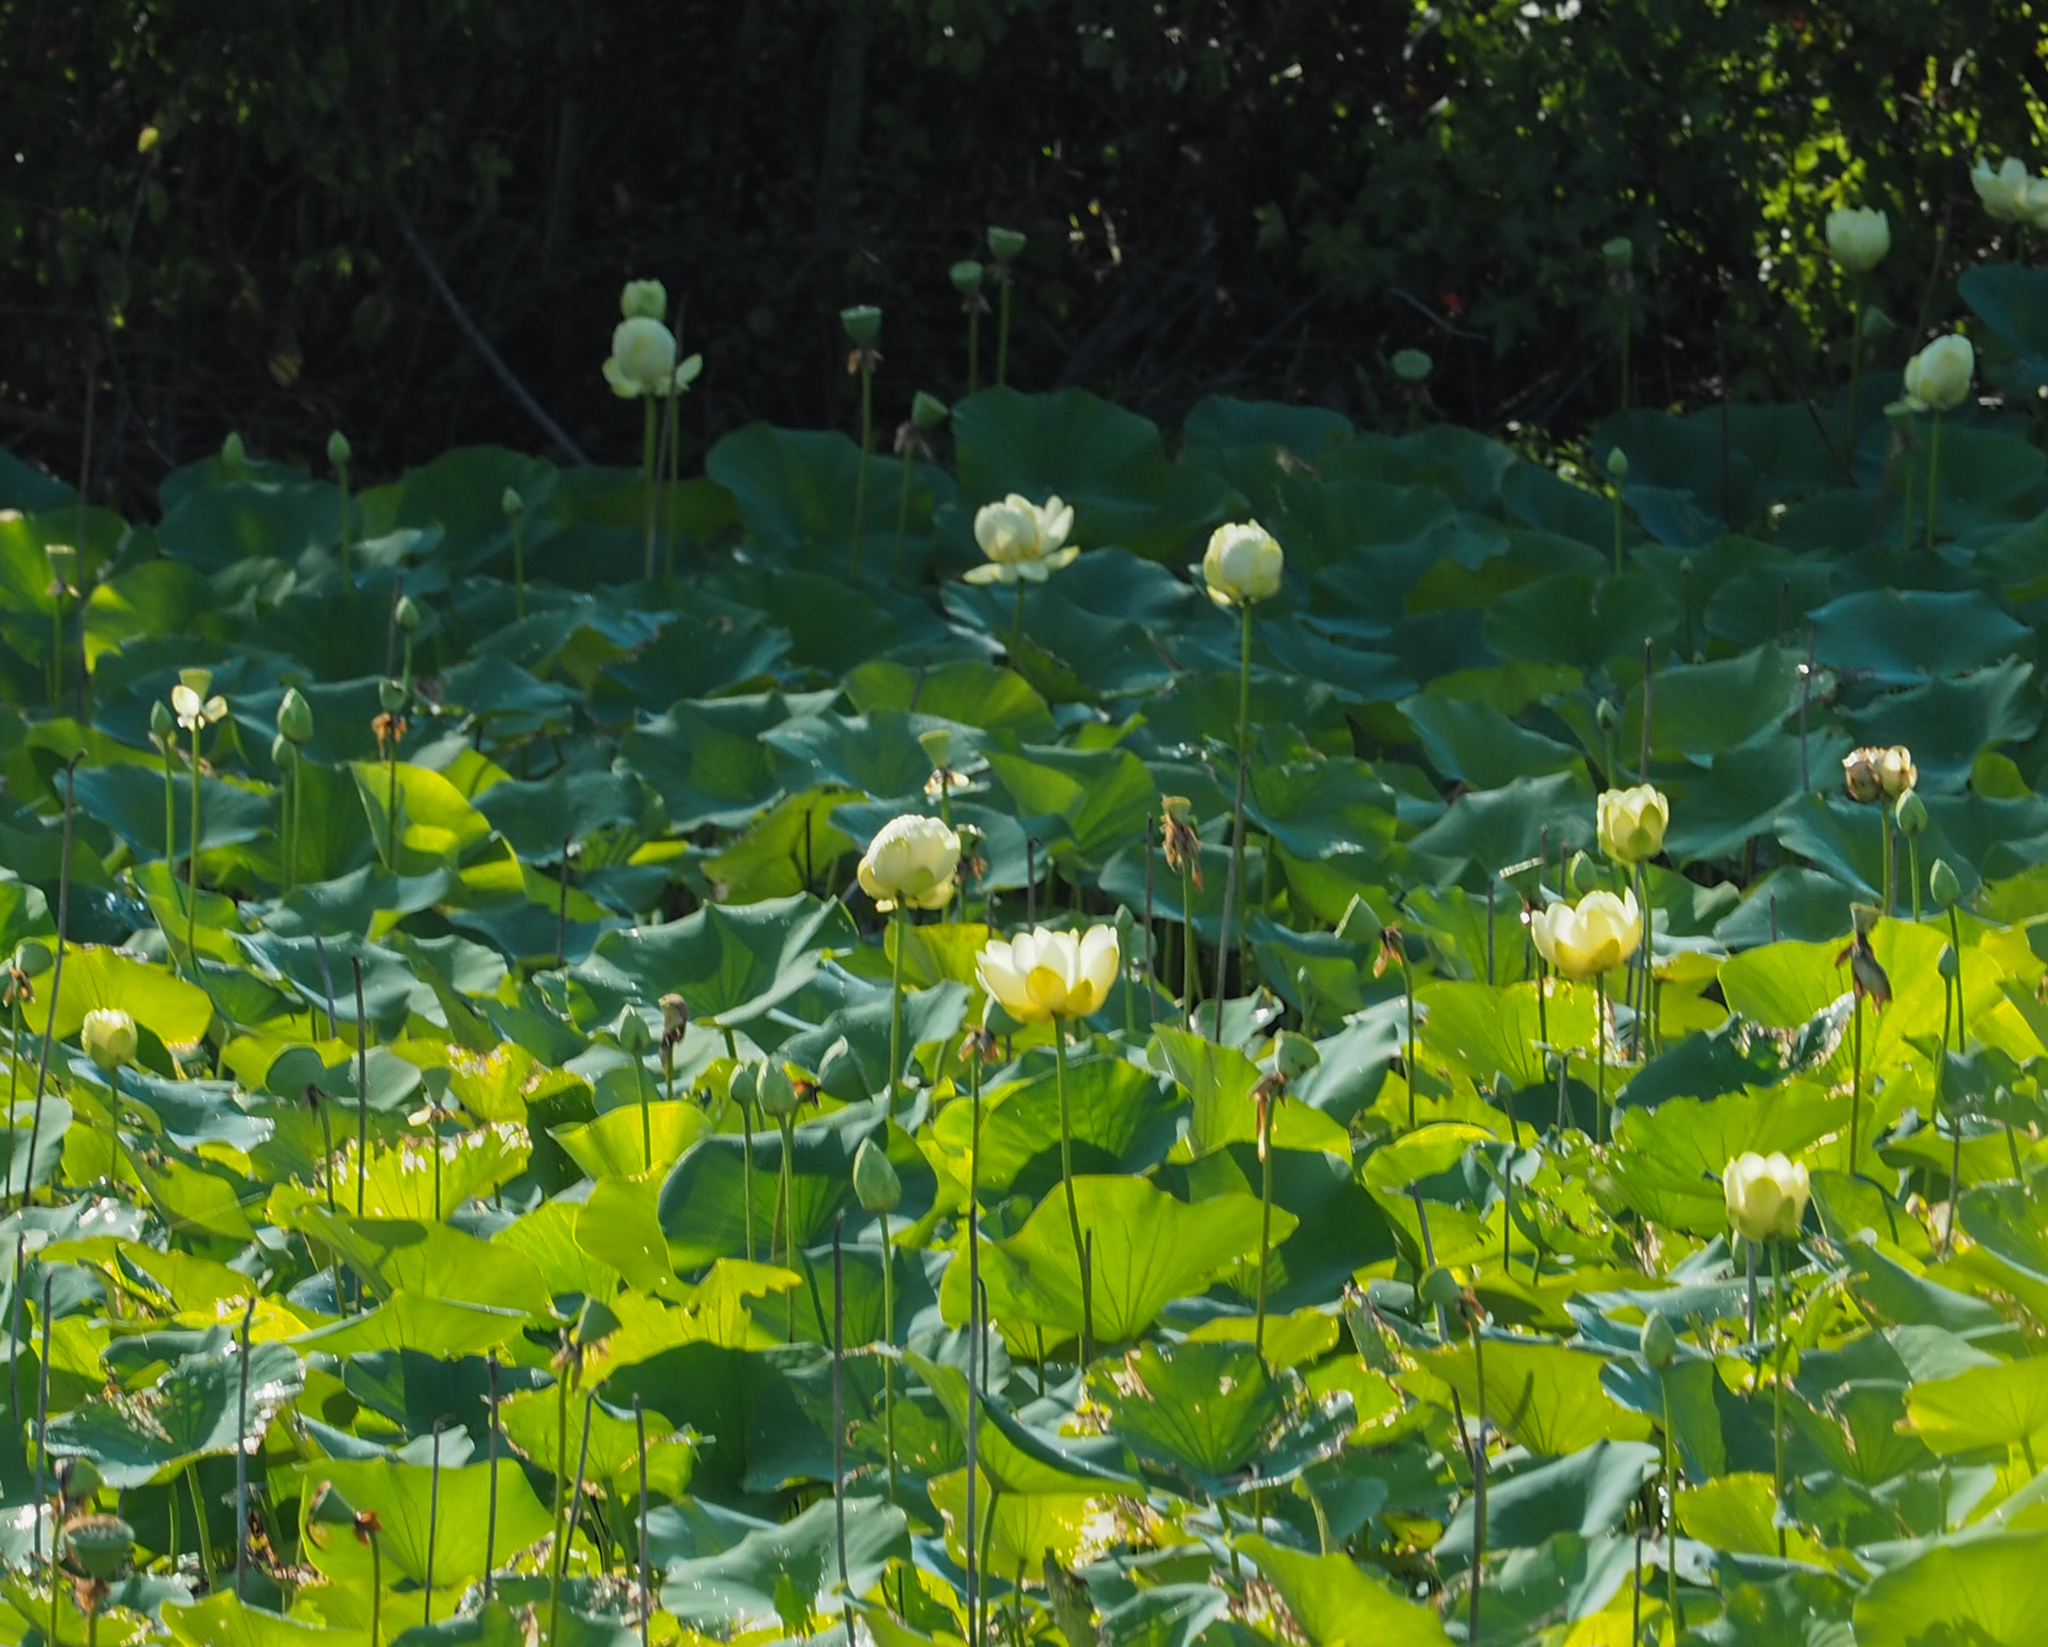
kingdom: Plantae
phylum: Tracheophyta
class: Magnoliopsida
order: Proteales
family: Nelumbonaceae
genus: Nelumbo
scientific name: Nelumbo lutea
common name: American lotus
